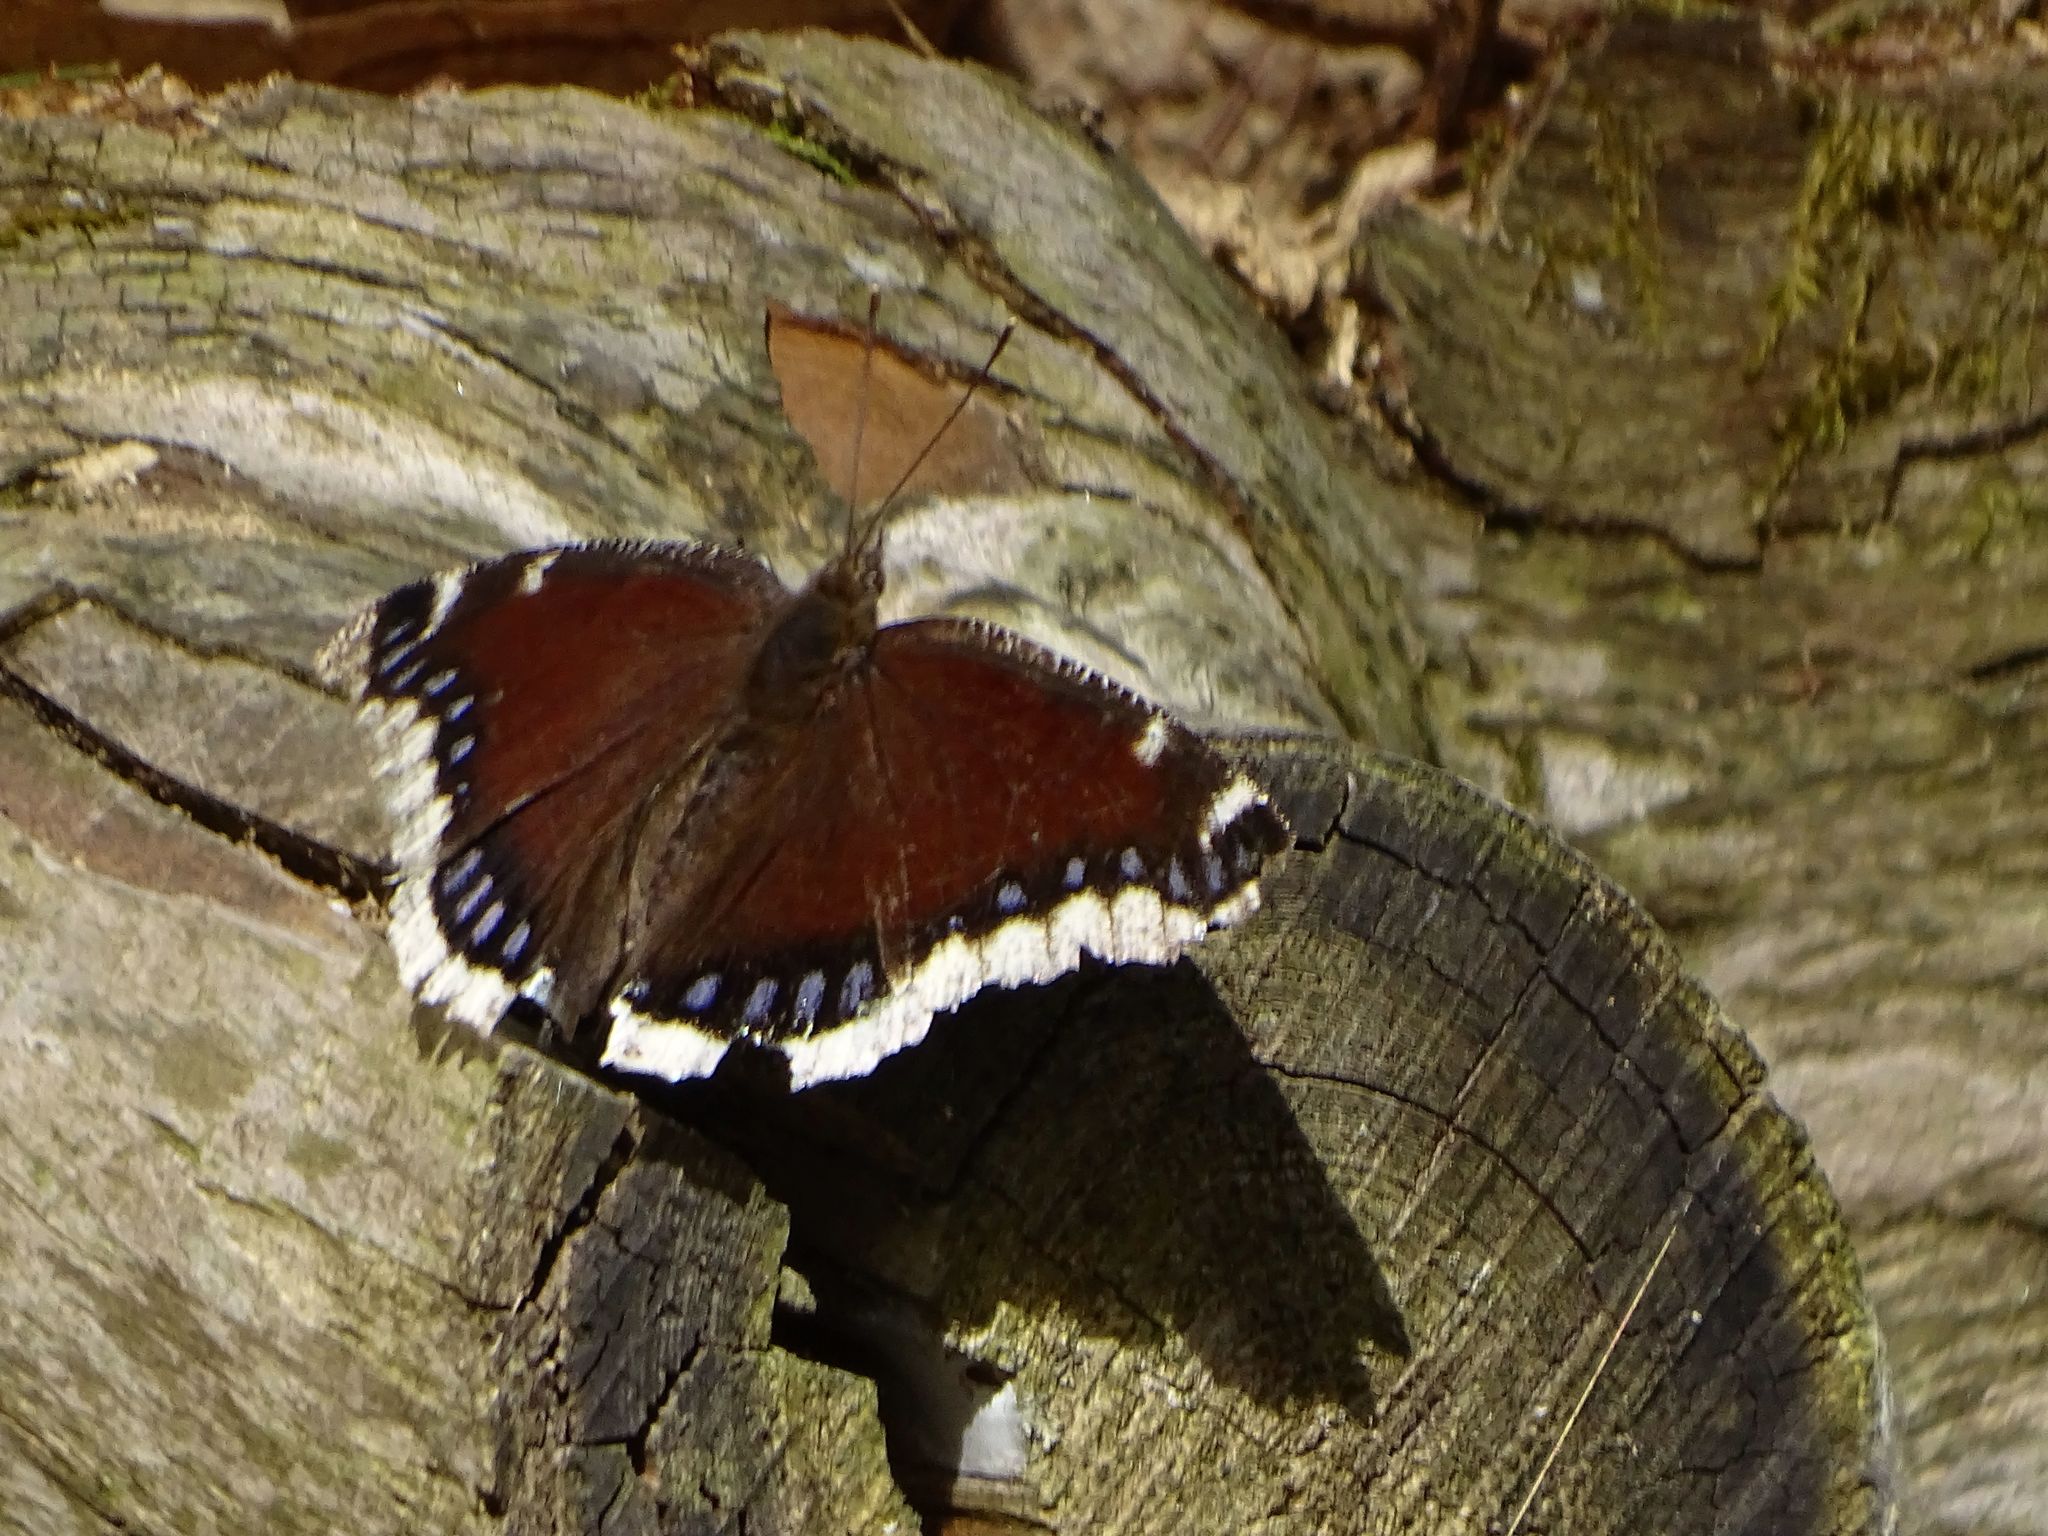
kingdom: Animalia
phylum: Arthropoda
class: Insecta
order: Lepidoptera
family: Nymphalidae
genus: Nymphalis
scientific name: Nymphalis antiopa
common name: Camberwell beauty
